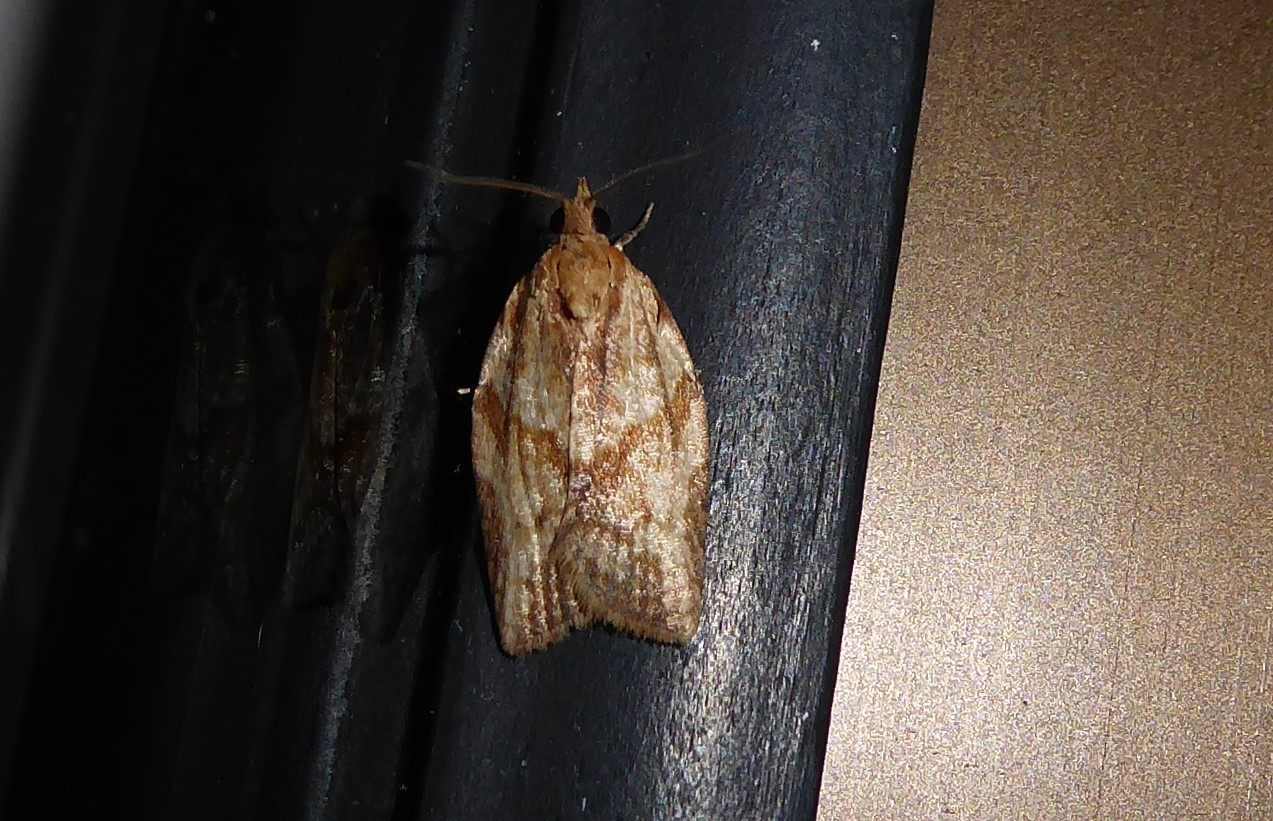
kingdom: Animalia
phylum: Arthropoda
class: Insecta
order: Lepidoptera
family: Tortricidae
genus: Epiphyas
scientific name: Epiphyas postvittana
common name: Light brown apple moth
